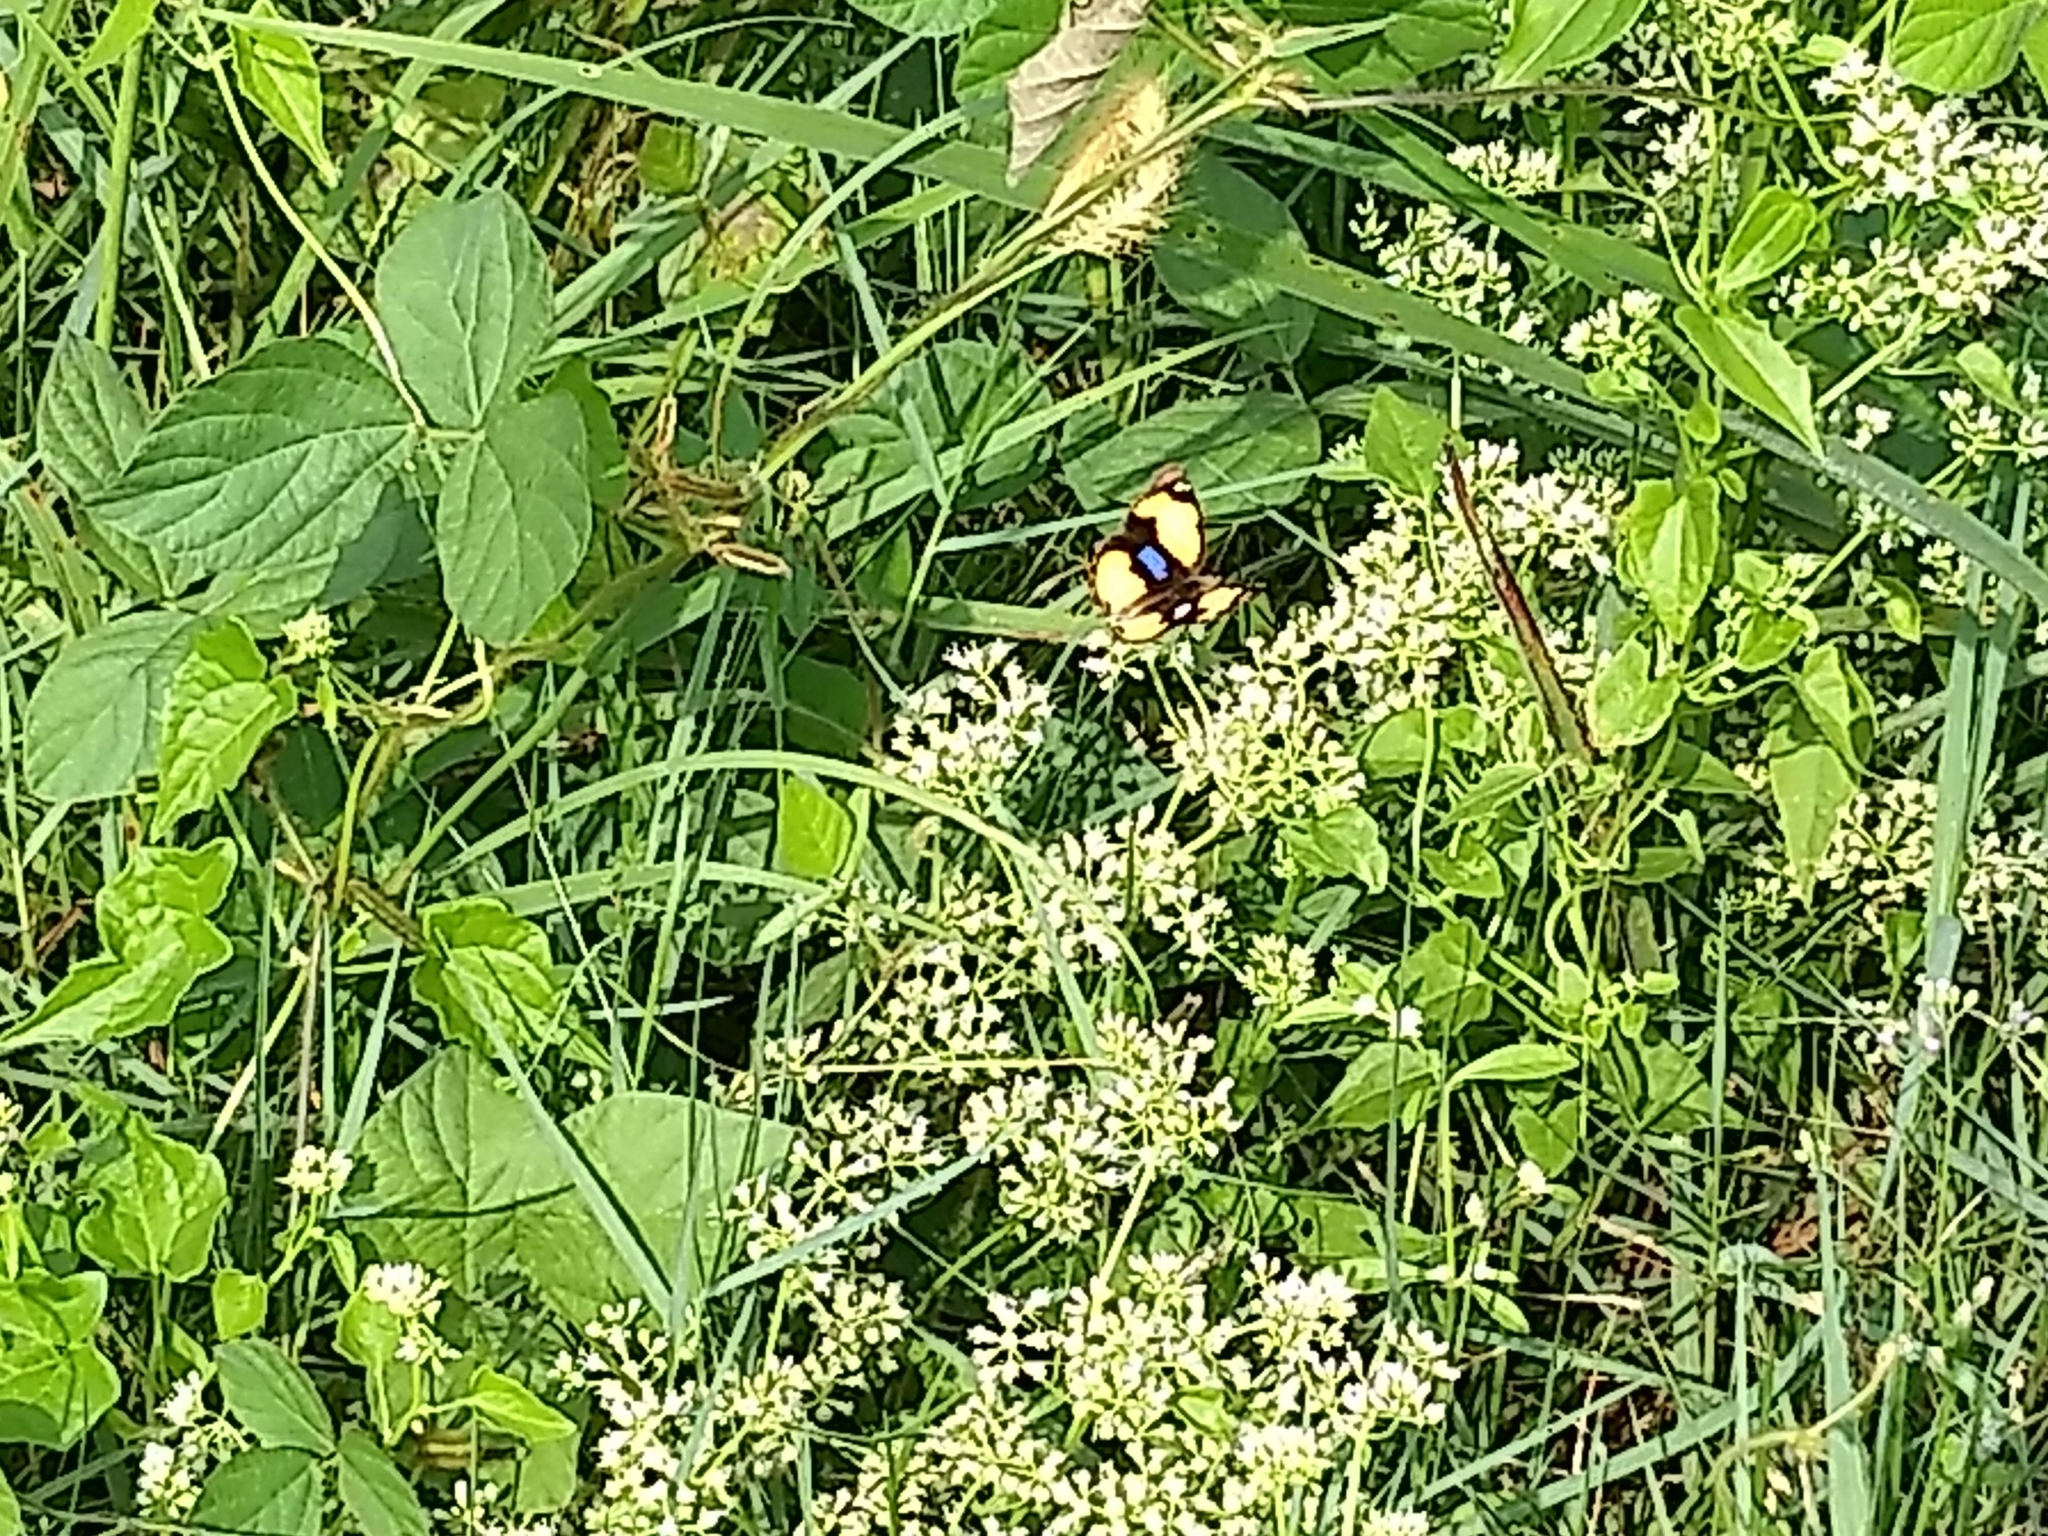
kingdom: Animalia
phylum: Arthropoda
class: Insecta
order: Lepidoptera
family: Nymphalidae
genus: Junonia
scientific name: Junonia hierta
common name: Yellow pansy
